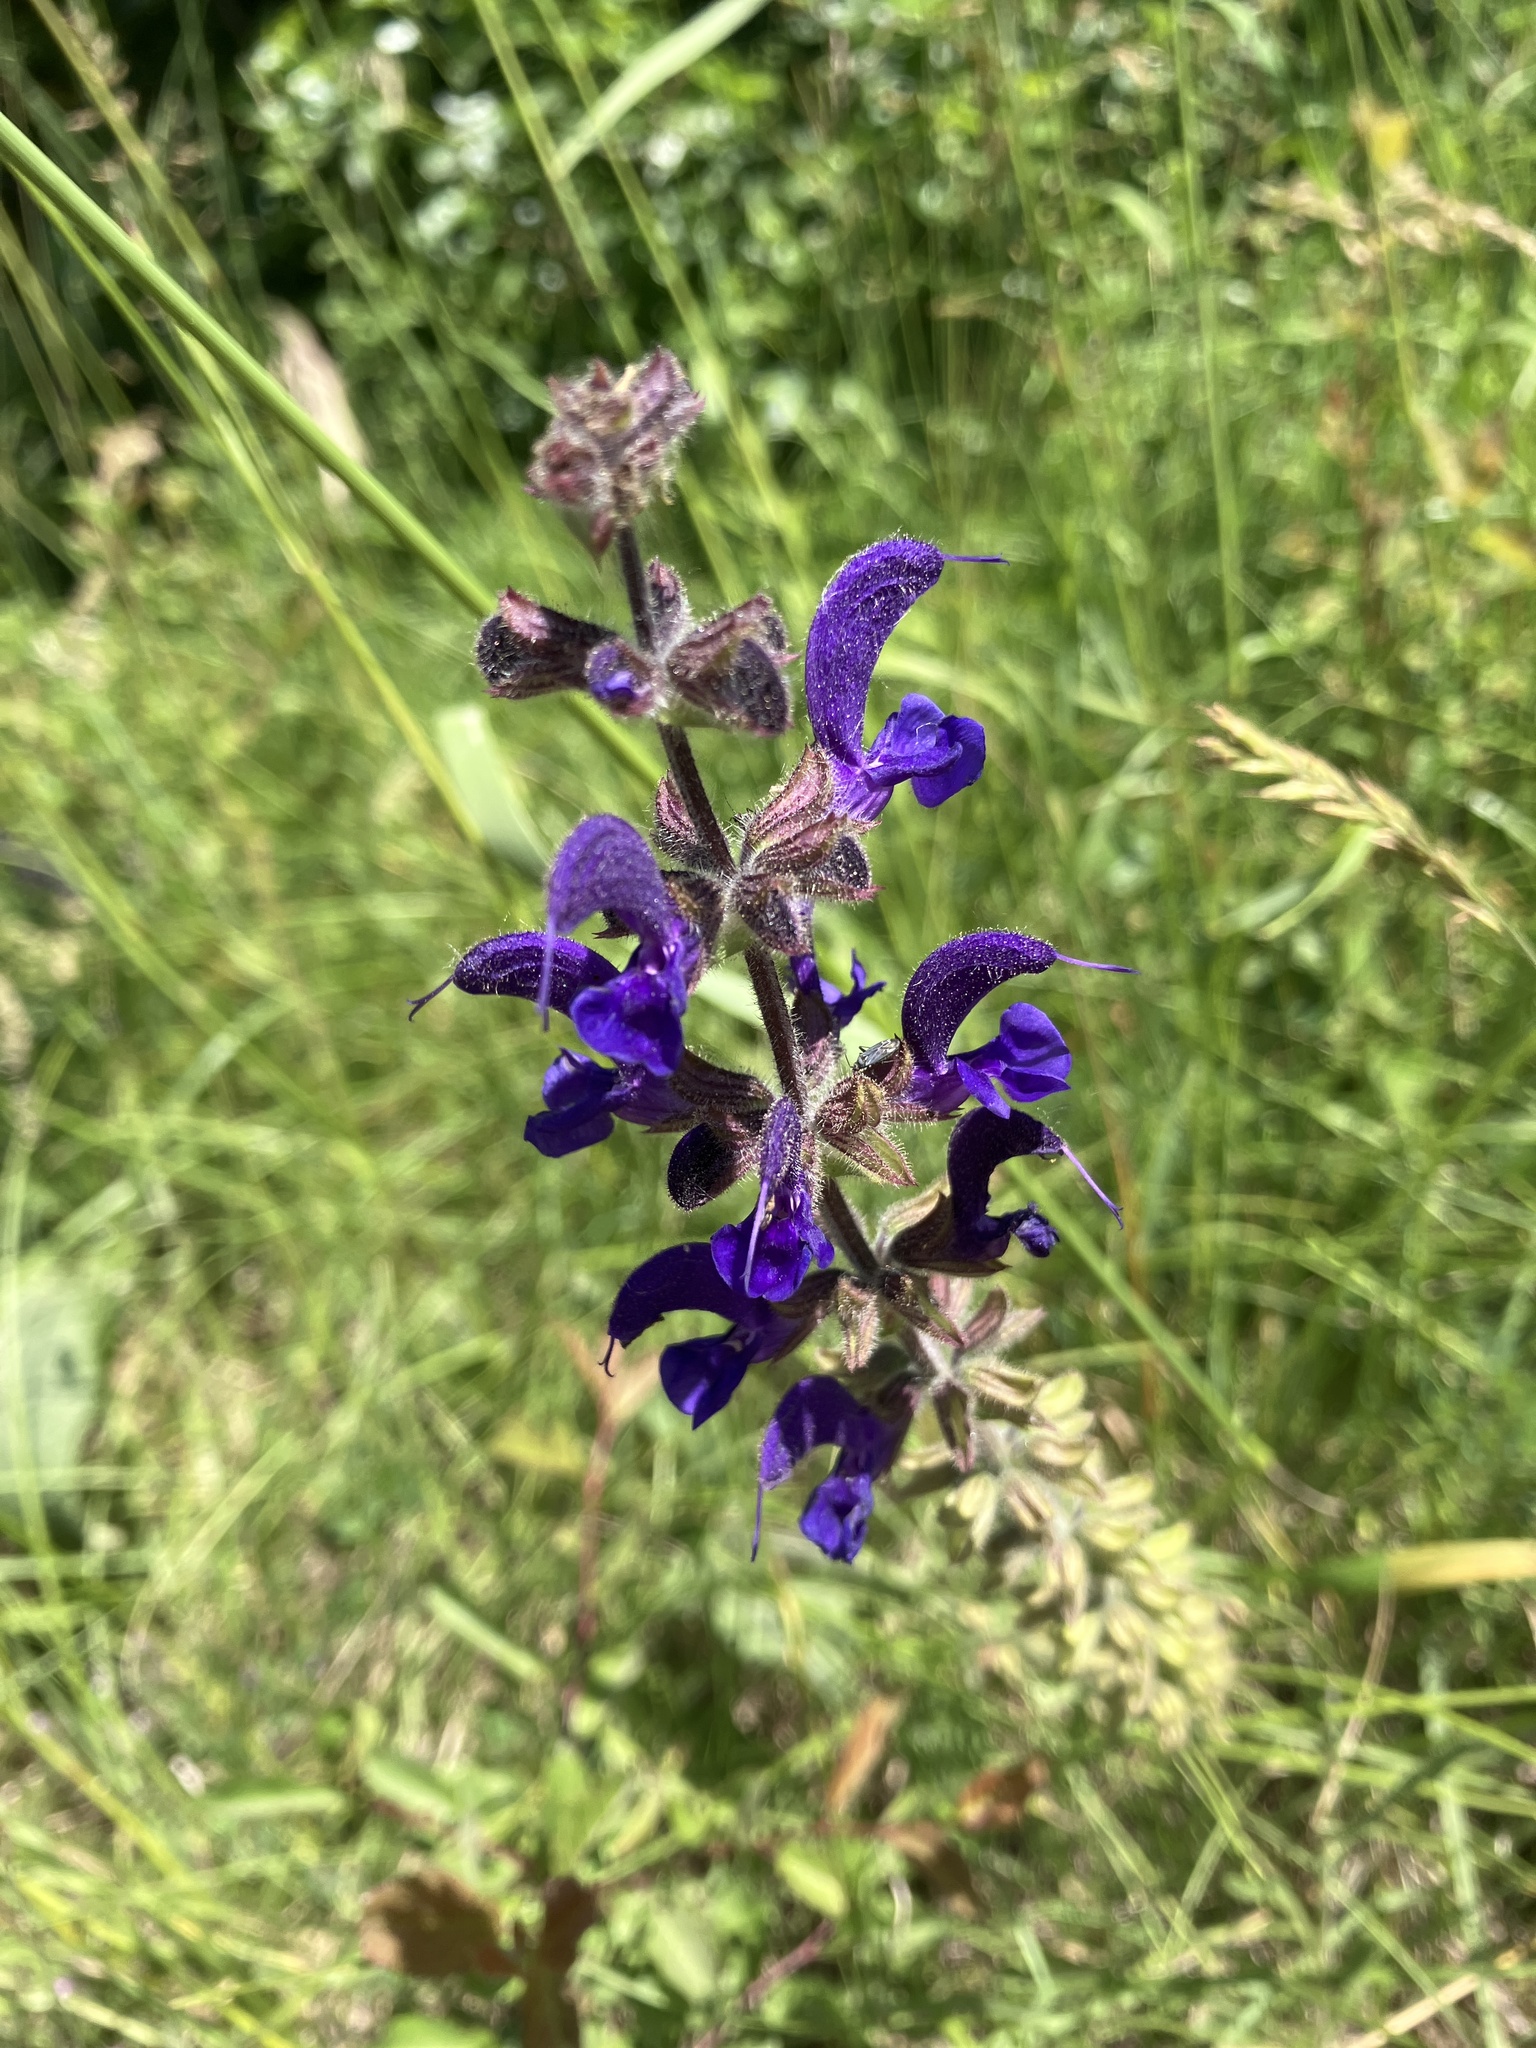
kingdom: Plantae
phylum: Tracheophyta
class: Magnoliopsida
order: Lamiales
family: Lamiaceae
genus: Salvia
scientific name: Salvia pratensis
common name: Meadow sage
